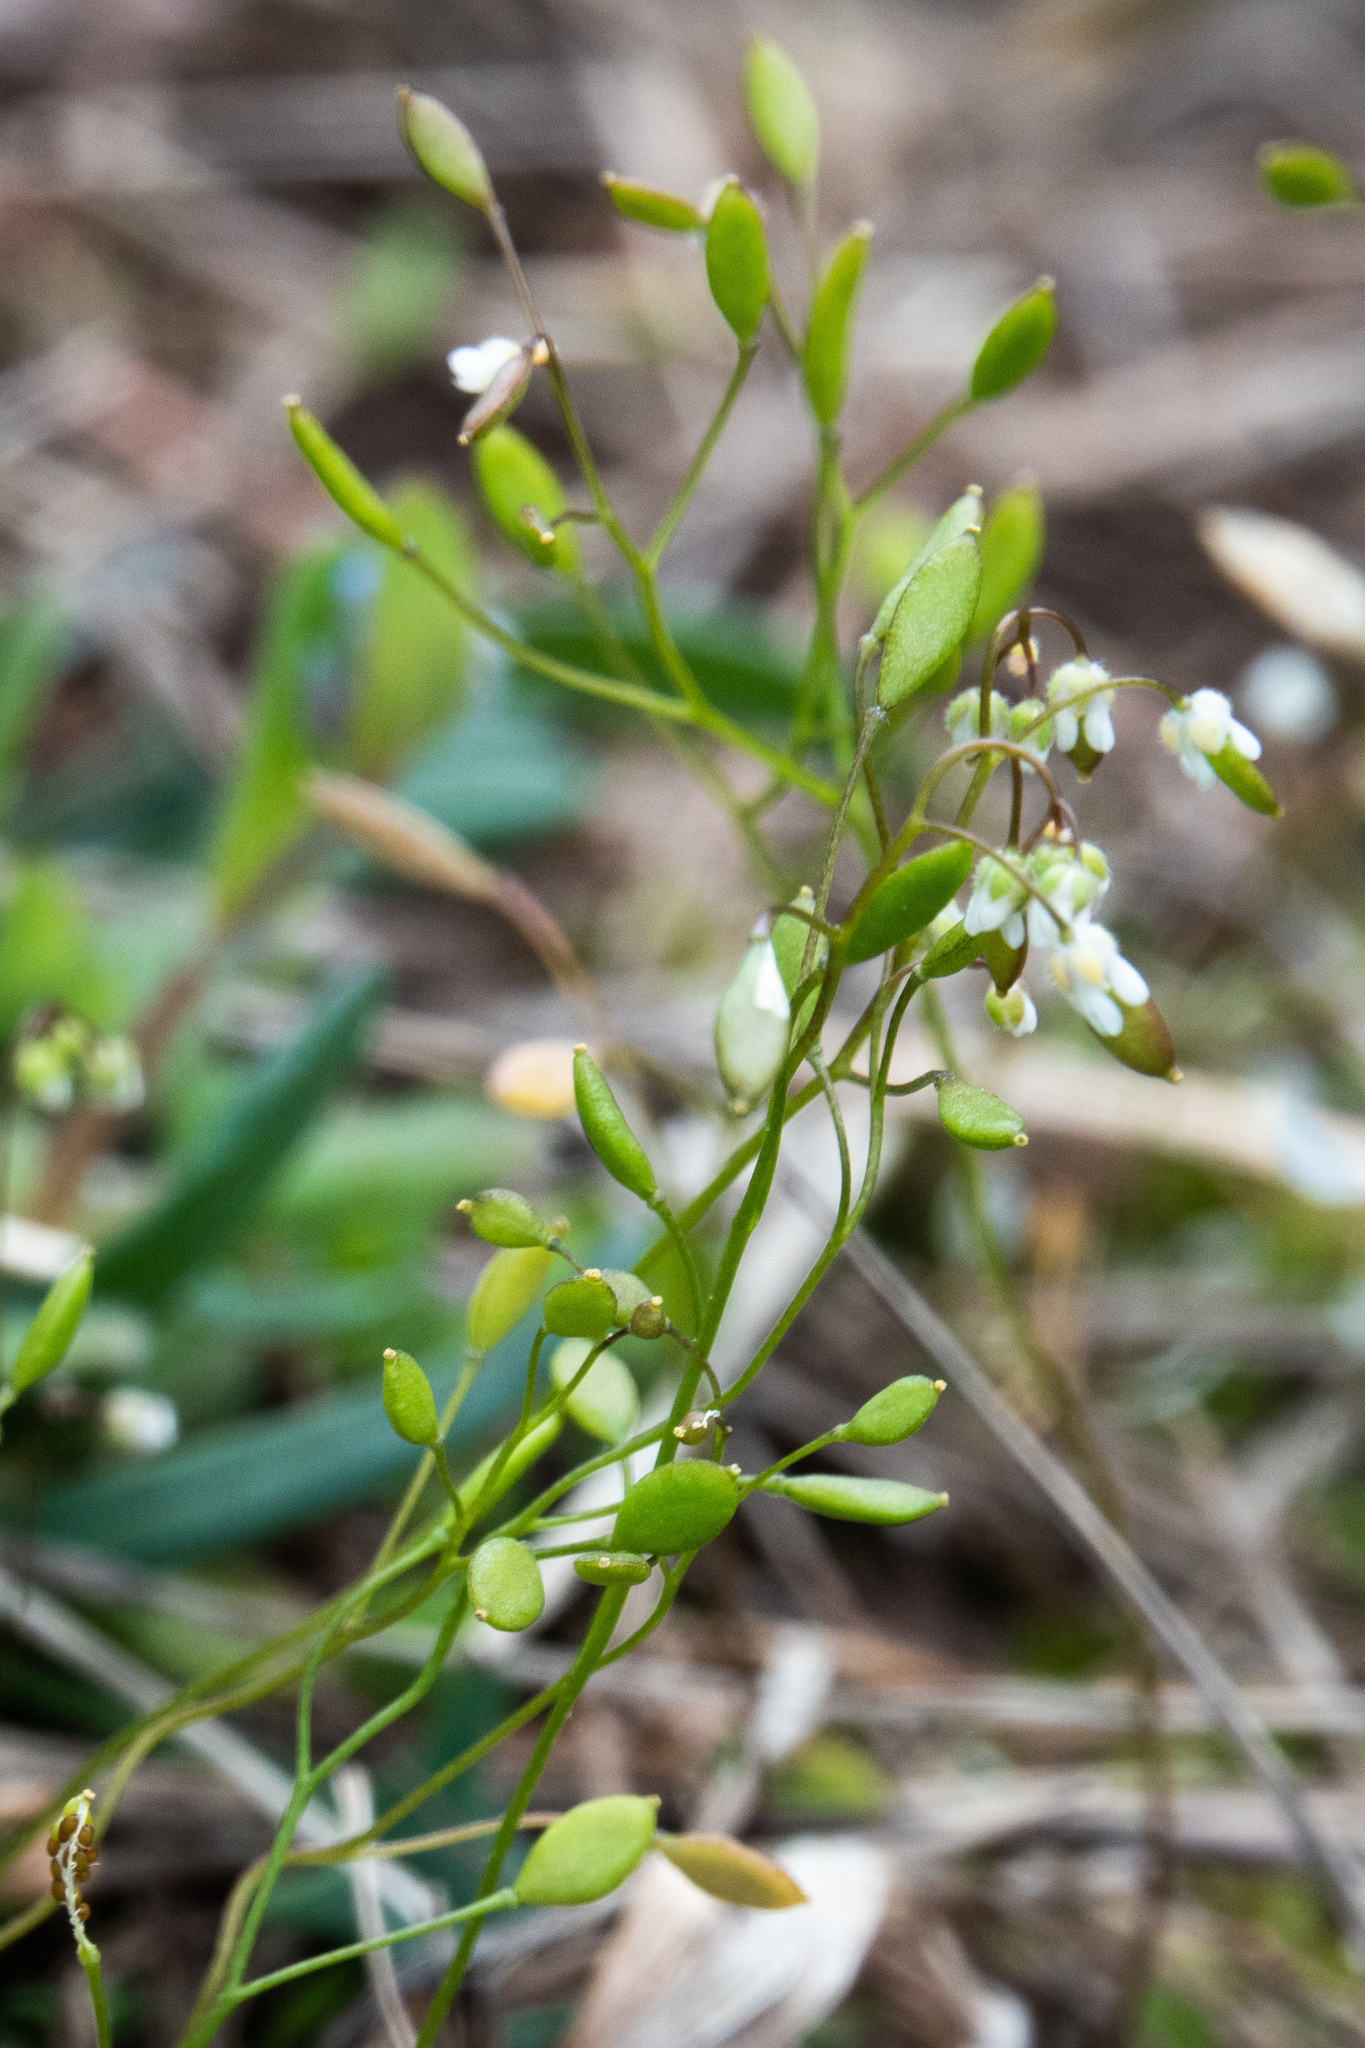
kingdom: Plantae
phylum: Tracheophyta
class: Magnoliopsida
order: Brassicales
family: Brassicaceae
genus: Draba
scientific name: Draba verna
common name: Spring draba
